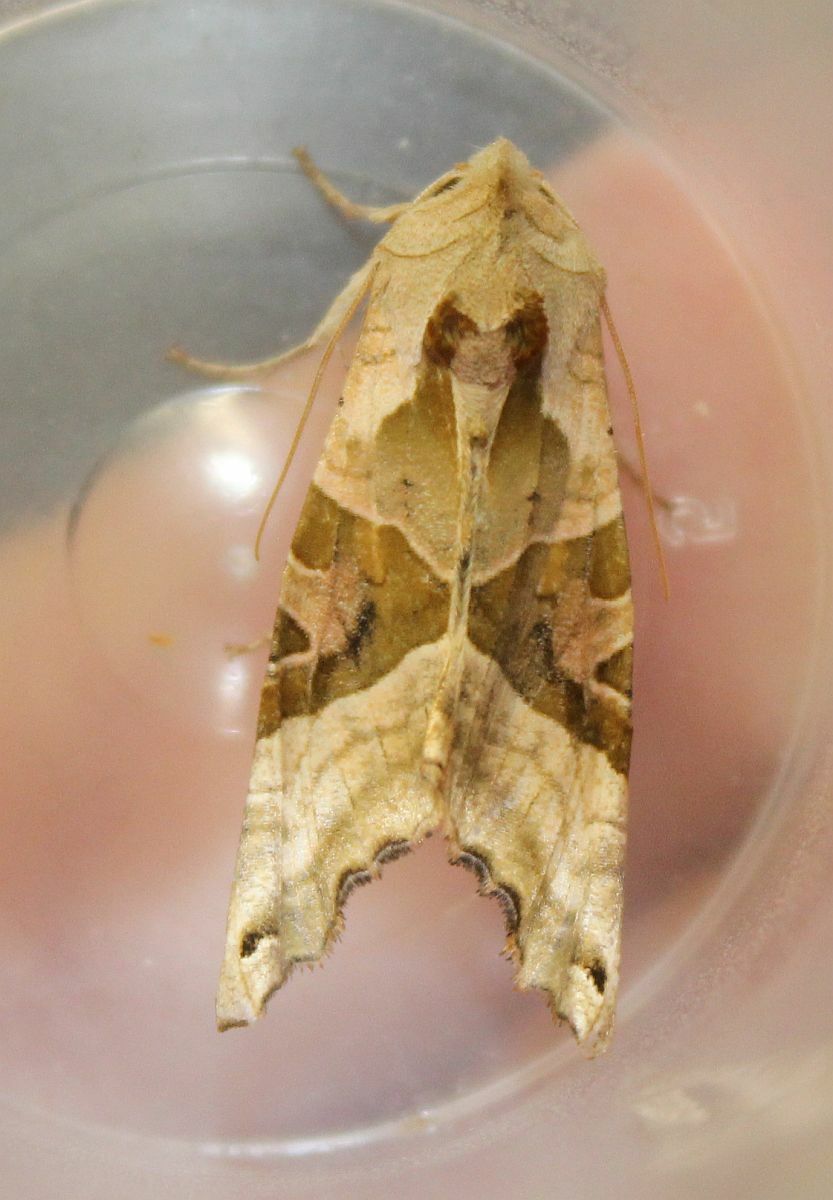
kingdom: Animalia
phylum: Arthropoda
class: Insecta
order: Lepidoptera
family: Noctuidae
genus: Phlogophora
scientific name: Phlogophora meticulosa
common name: Angle shades
